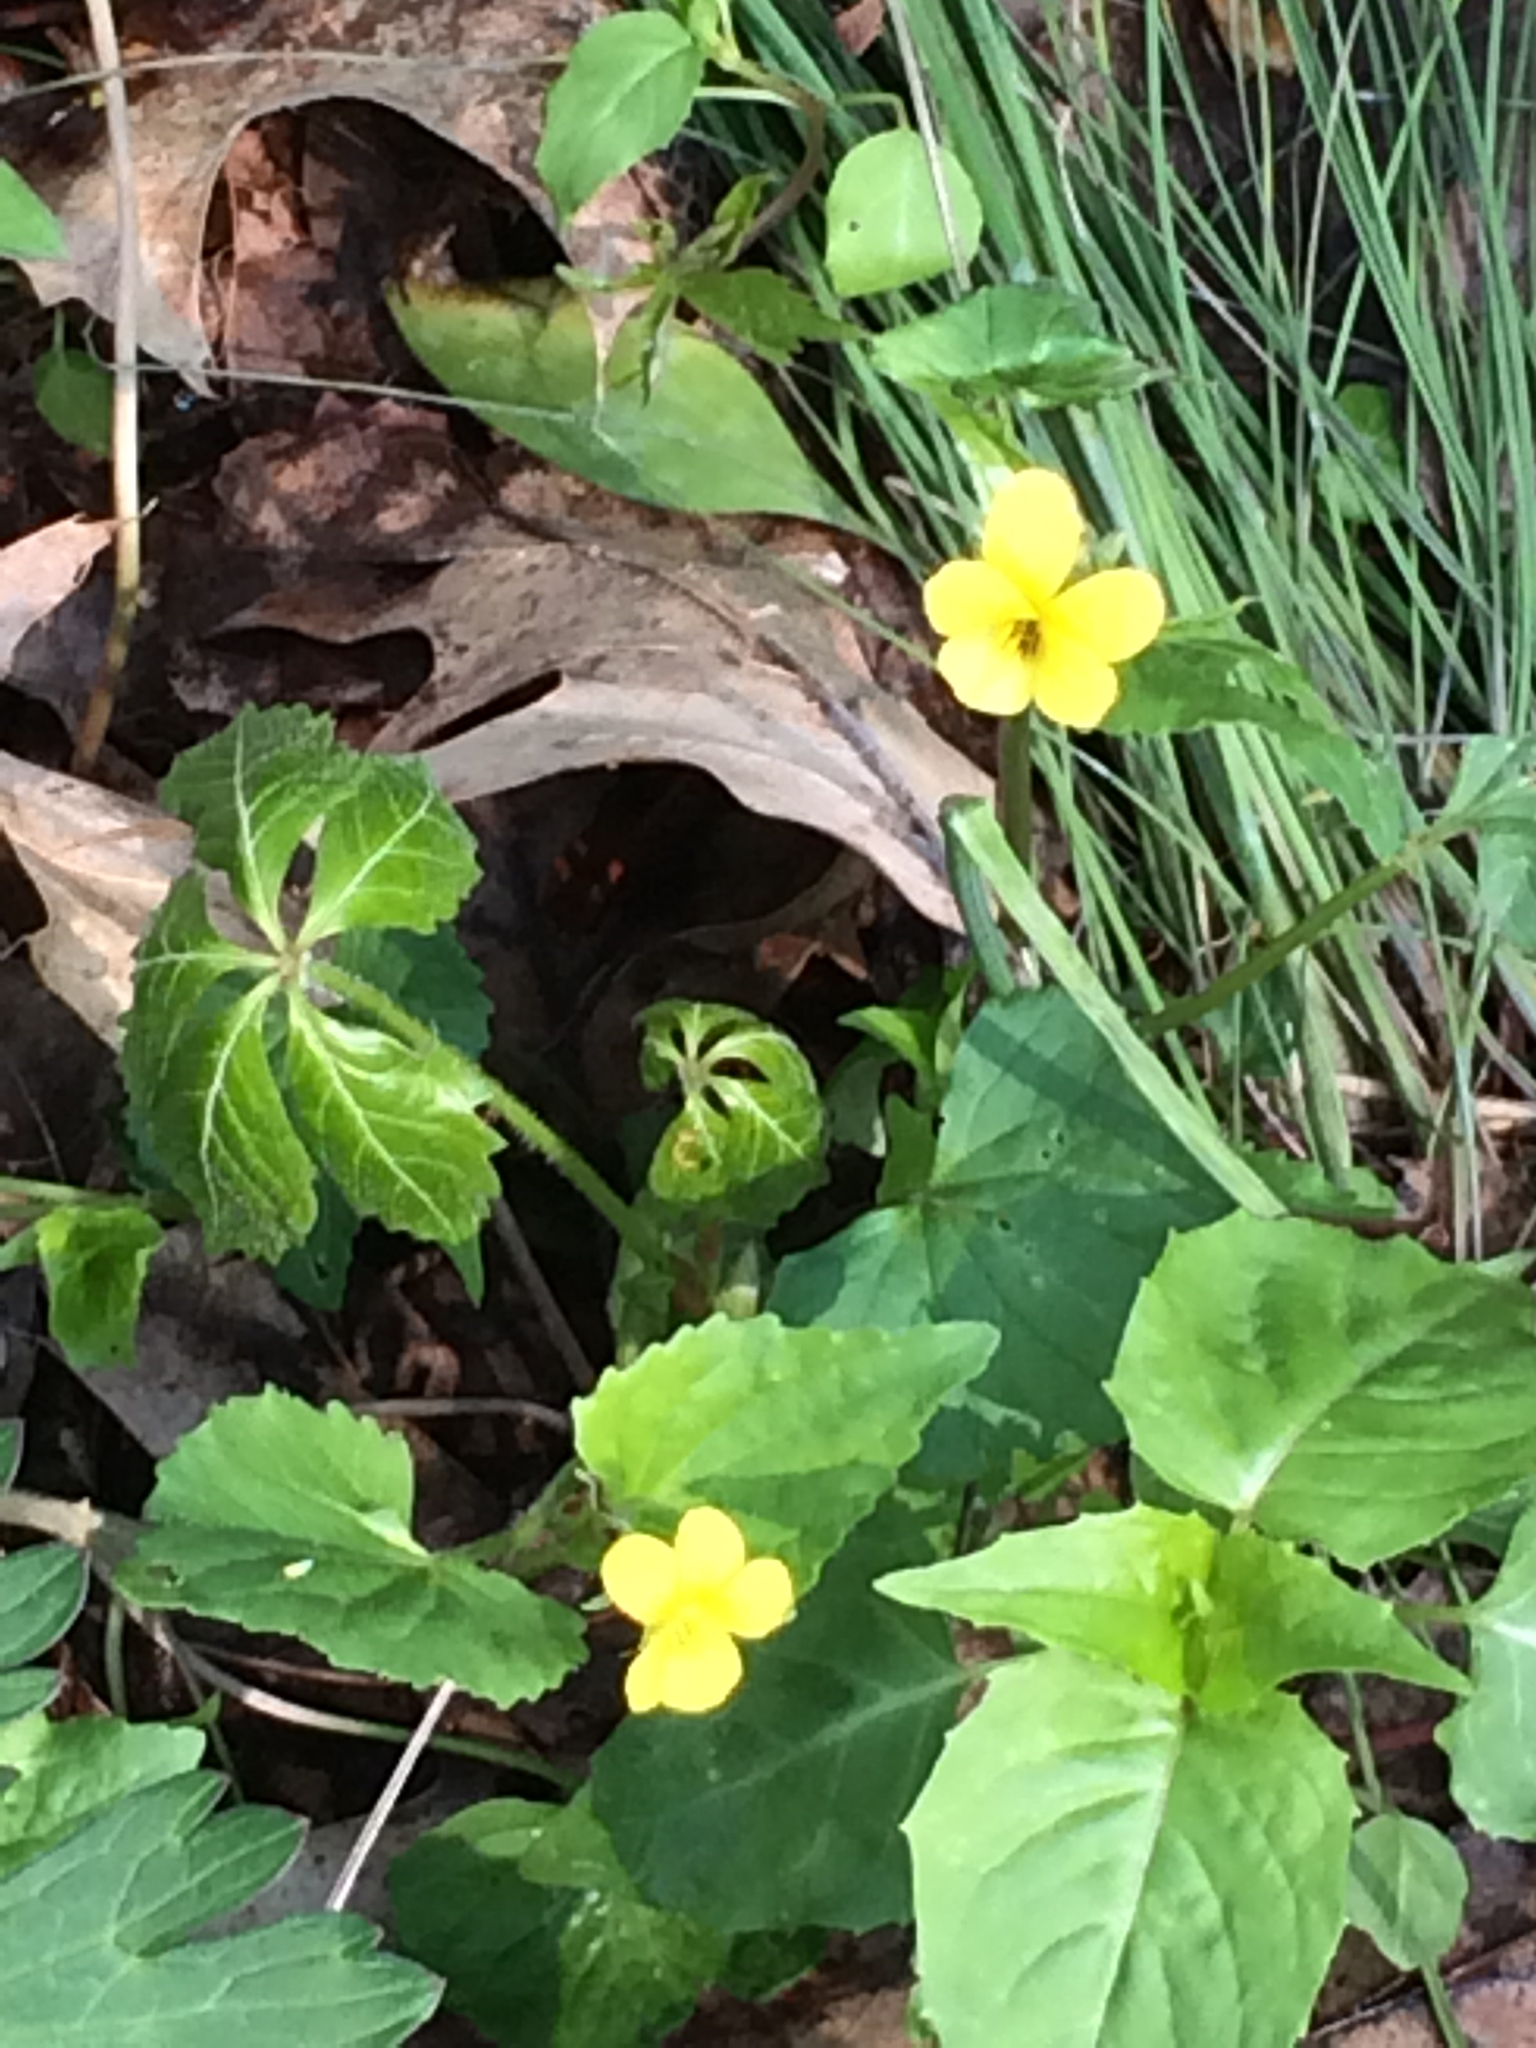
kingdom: Plantae
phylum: Tracheophyta
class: Magnoliopsida
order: Malpighiales
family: Violaceae
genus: Viola
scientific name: Viola eriocarpa
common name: Smooth yellow violet
